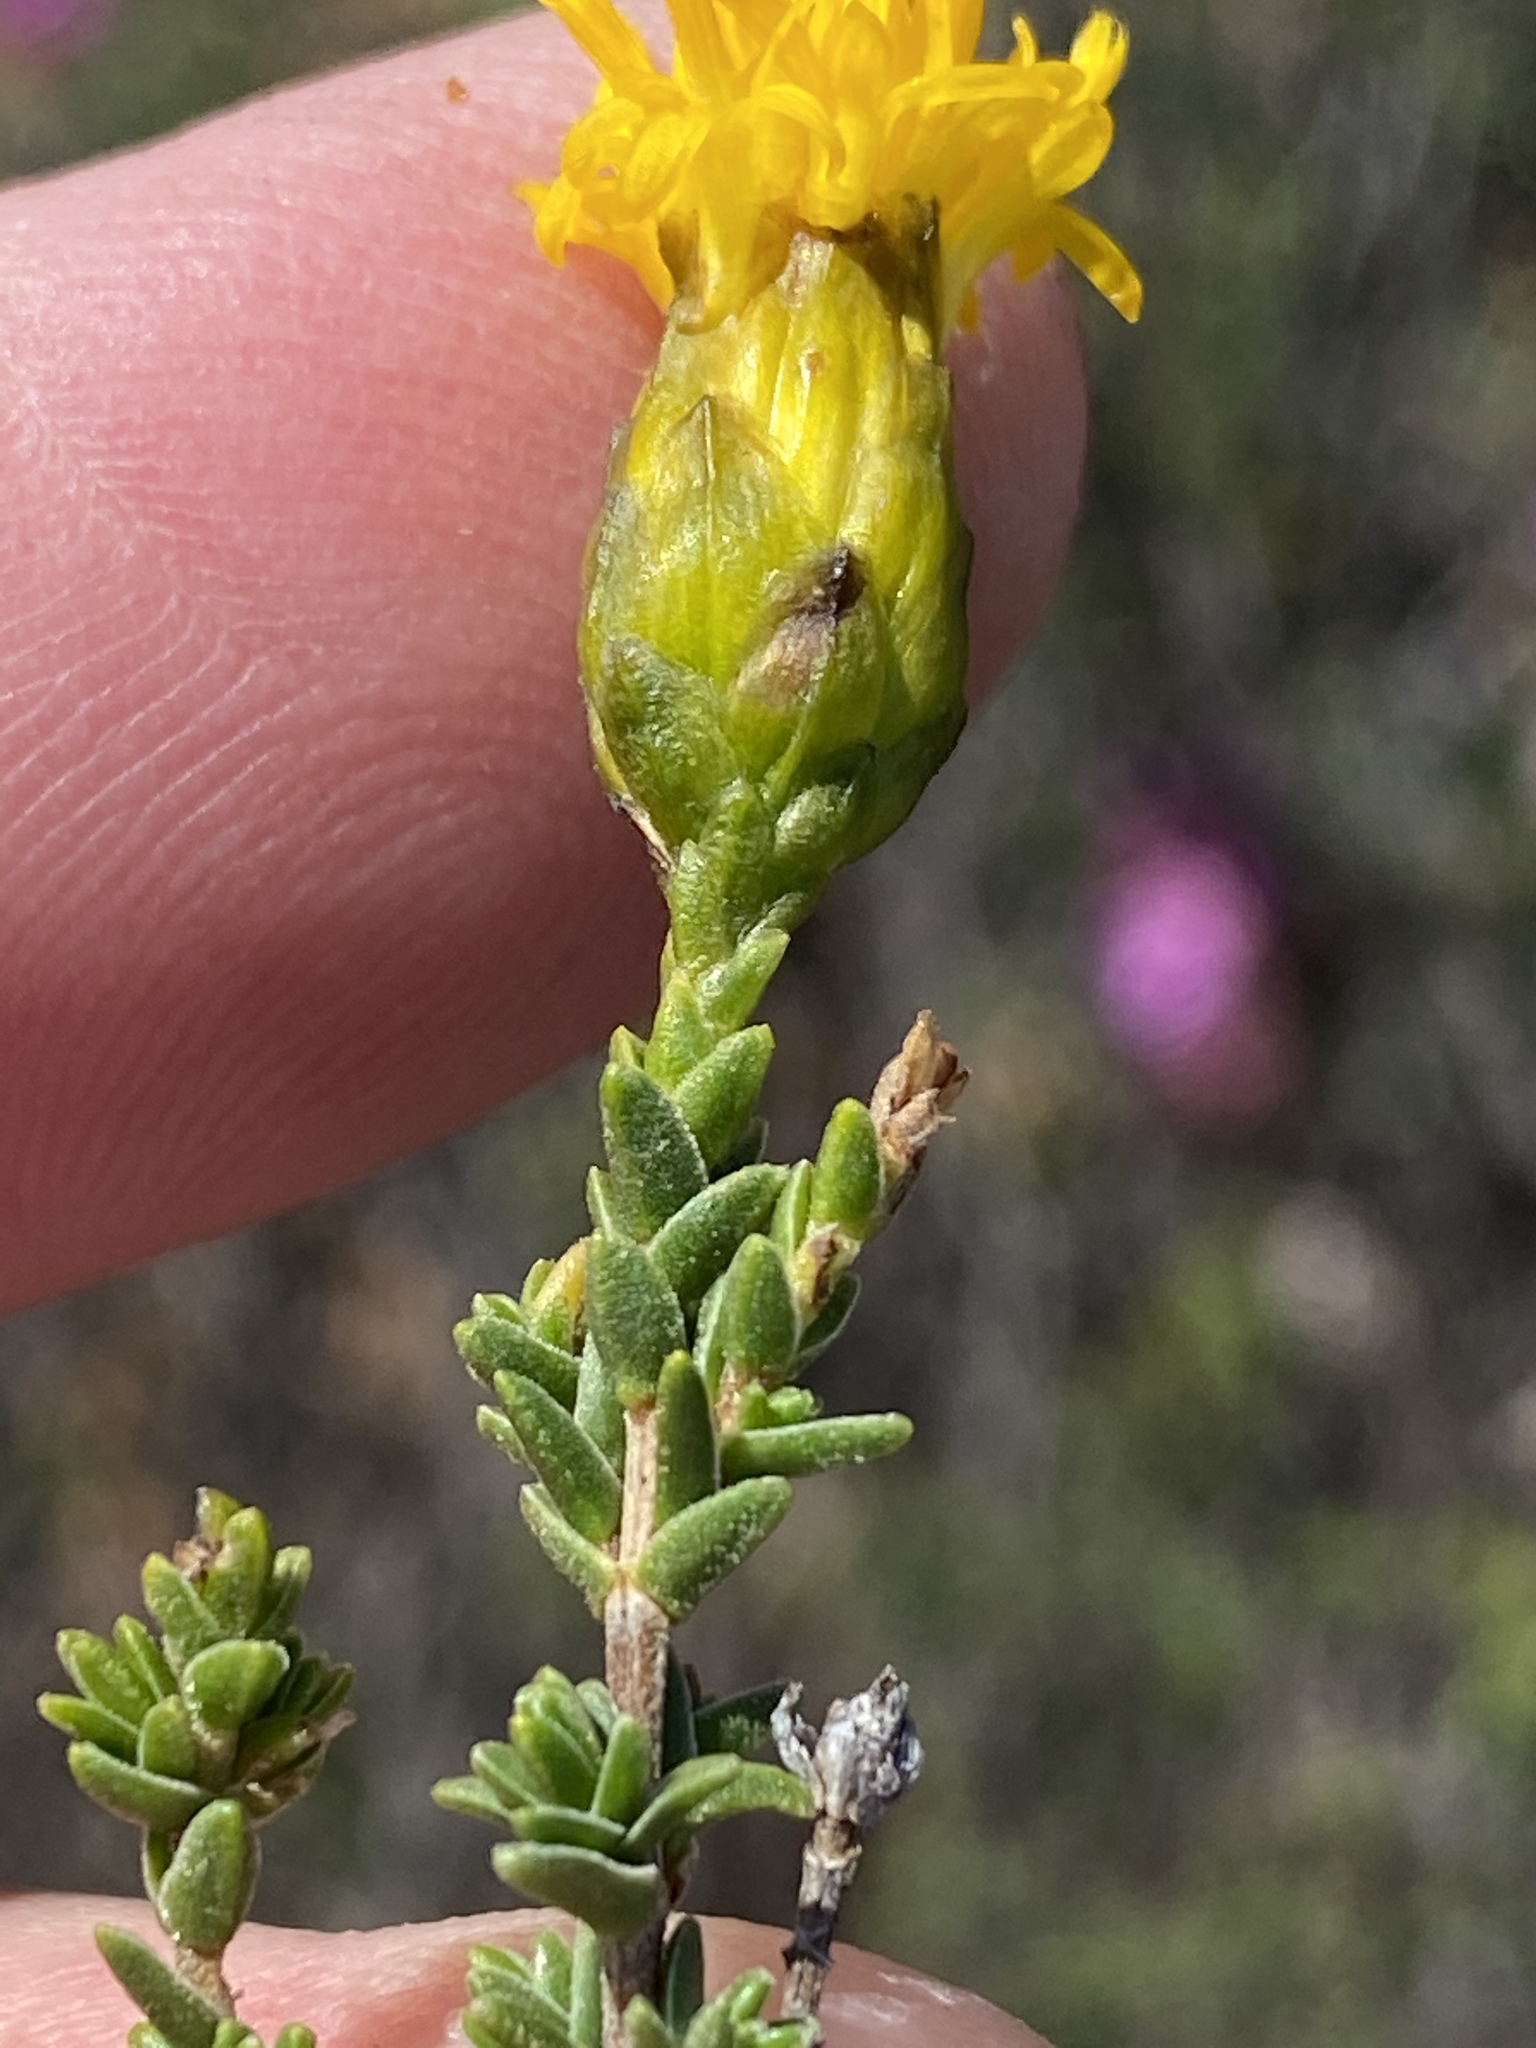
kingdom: Plantae
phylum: Tracheophyta
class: Magnoliopsida
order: Asterales
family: Asteraceae
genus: Pteronia
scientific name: Pteronia viscosa
